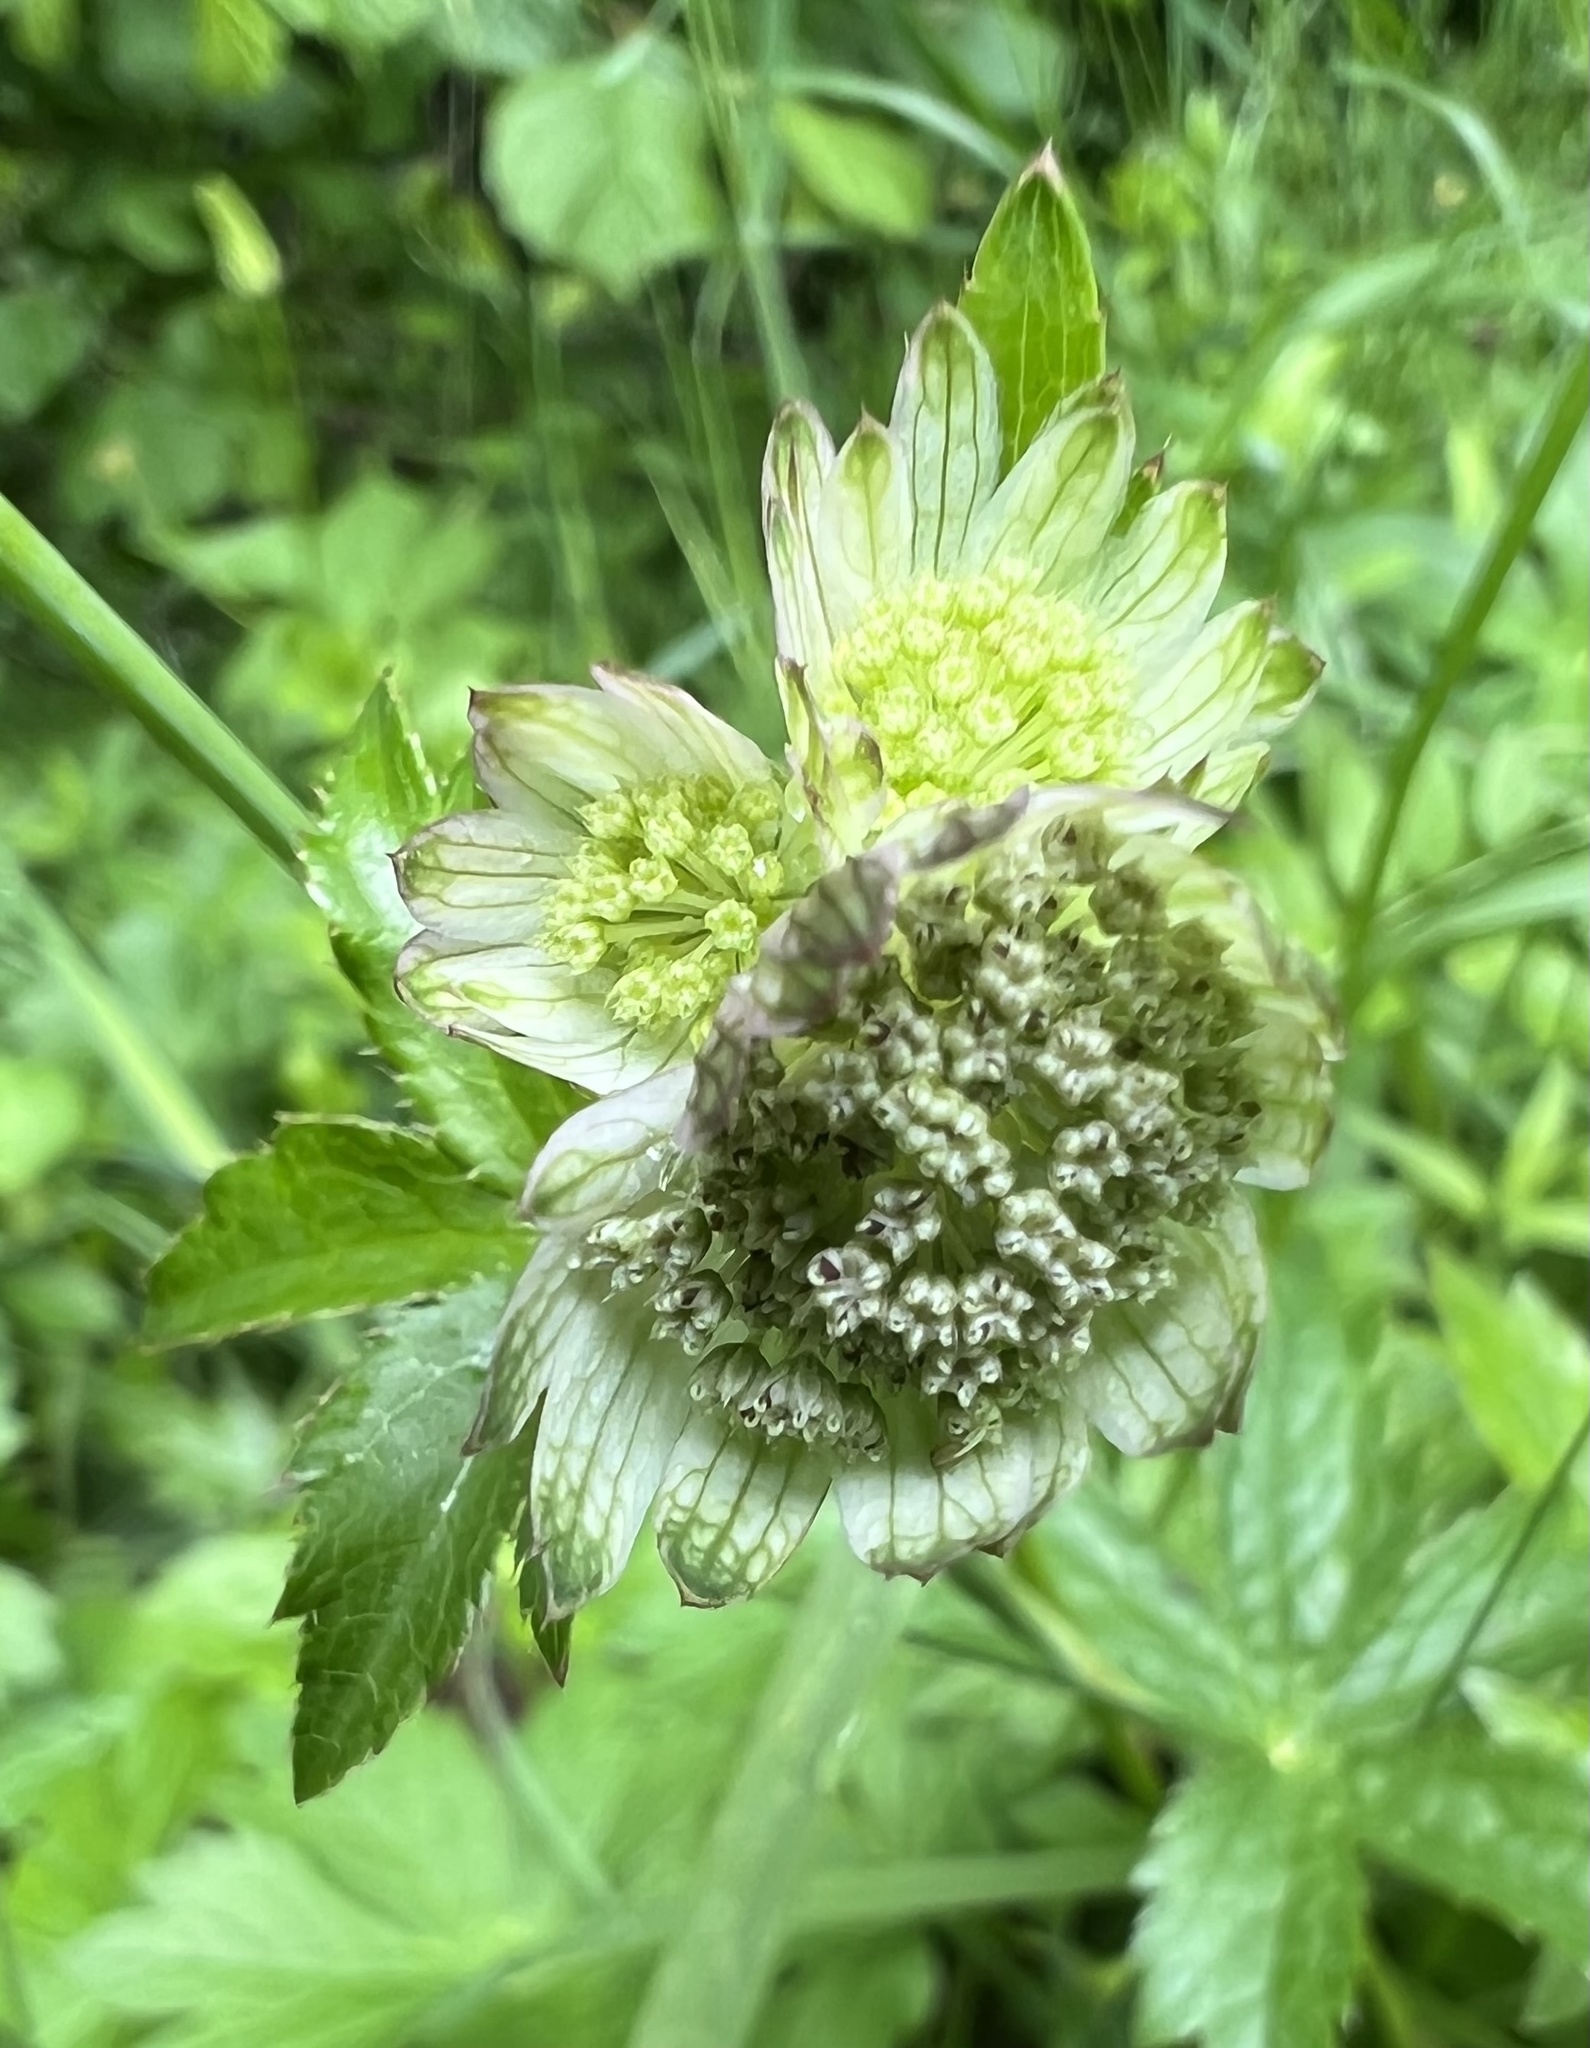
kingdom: Plantae
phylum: Tracheophyta
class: Magnoliopsida
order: Apiales
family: Apiaceae
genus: Astrantia
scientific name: Astrantia major
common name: Greater masterwort
